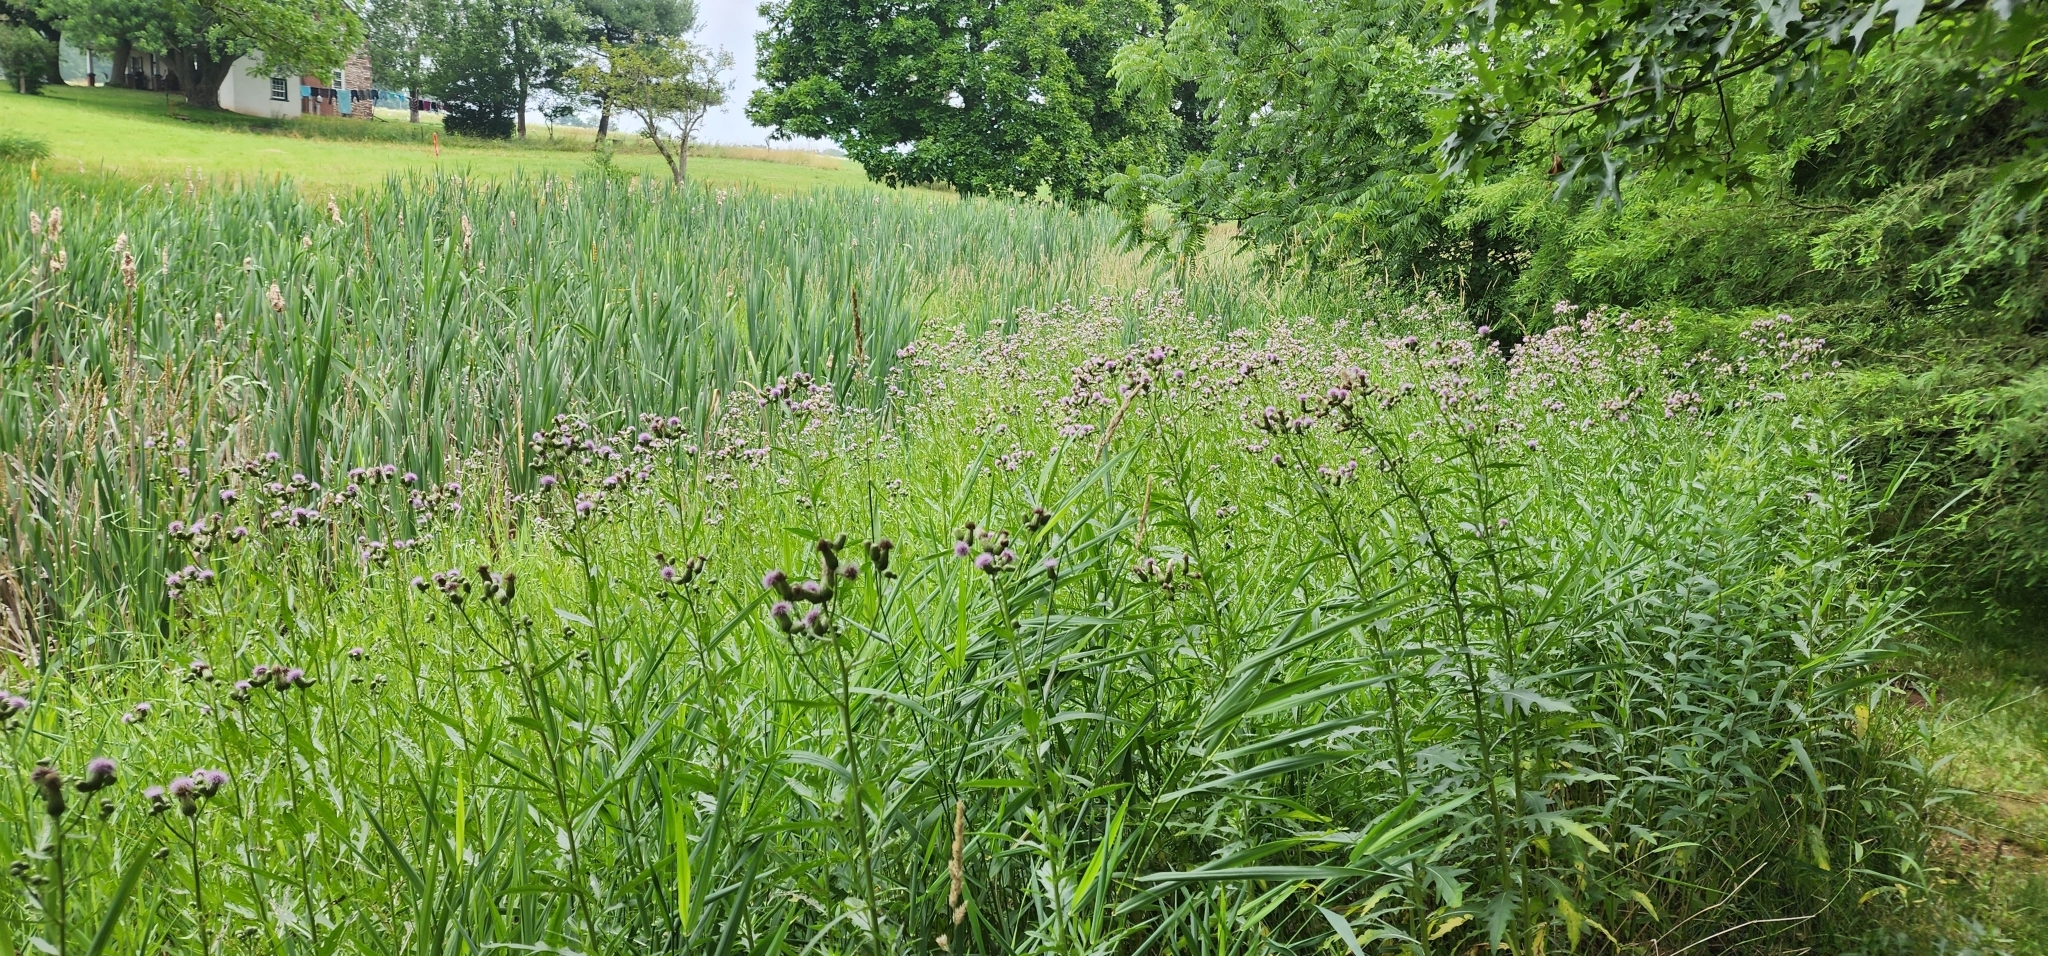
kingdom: Plantae
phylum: Tracheophyta
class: Magnoliopsida
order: Asterales
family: Asteraceae
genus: Cirsium
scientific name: Cirsium arvense
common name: Creeping thistle
